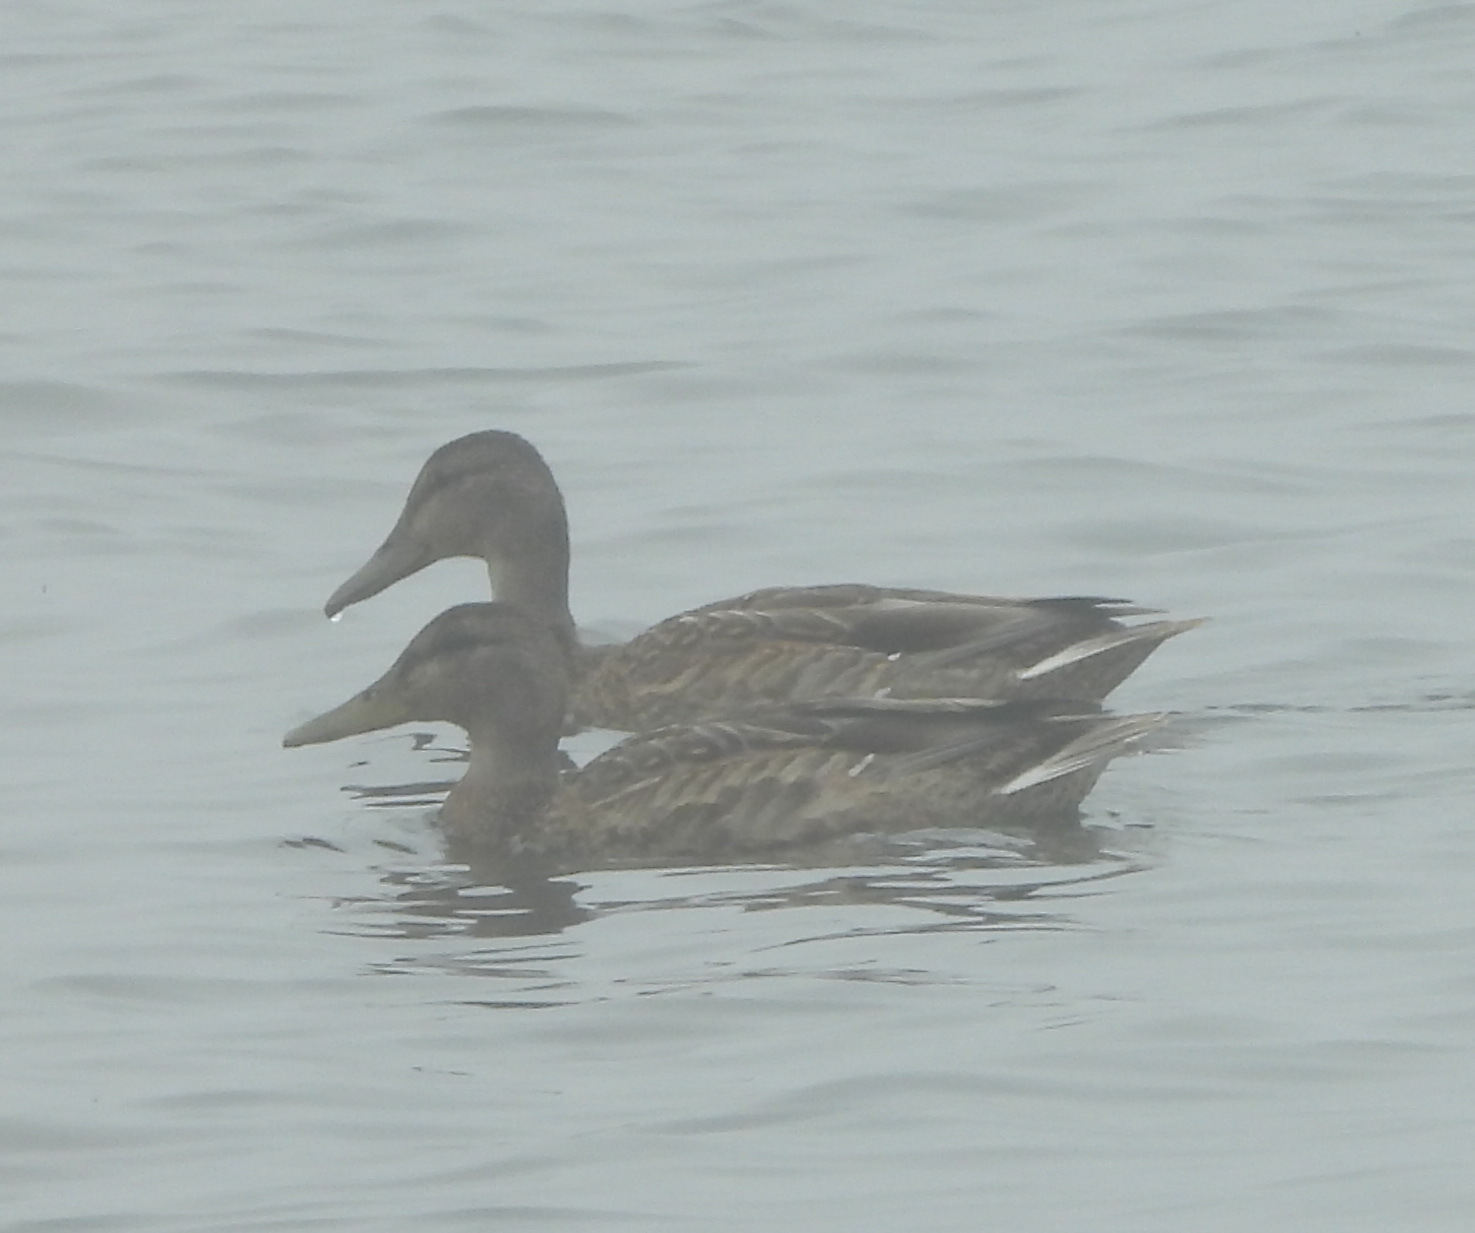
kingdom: Animalia
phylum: Chordata
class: Aves
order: Anseriformes
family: Anatidae
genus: Anas
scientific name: Anas platyrhynchos
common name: Mallard
